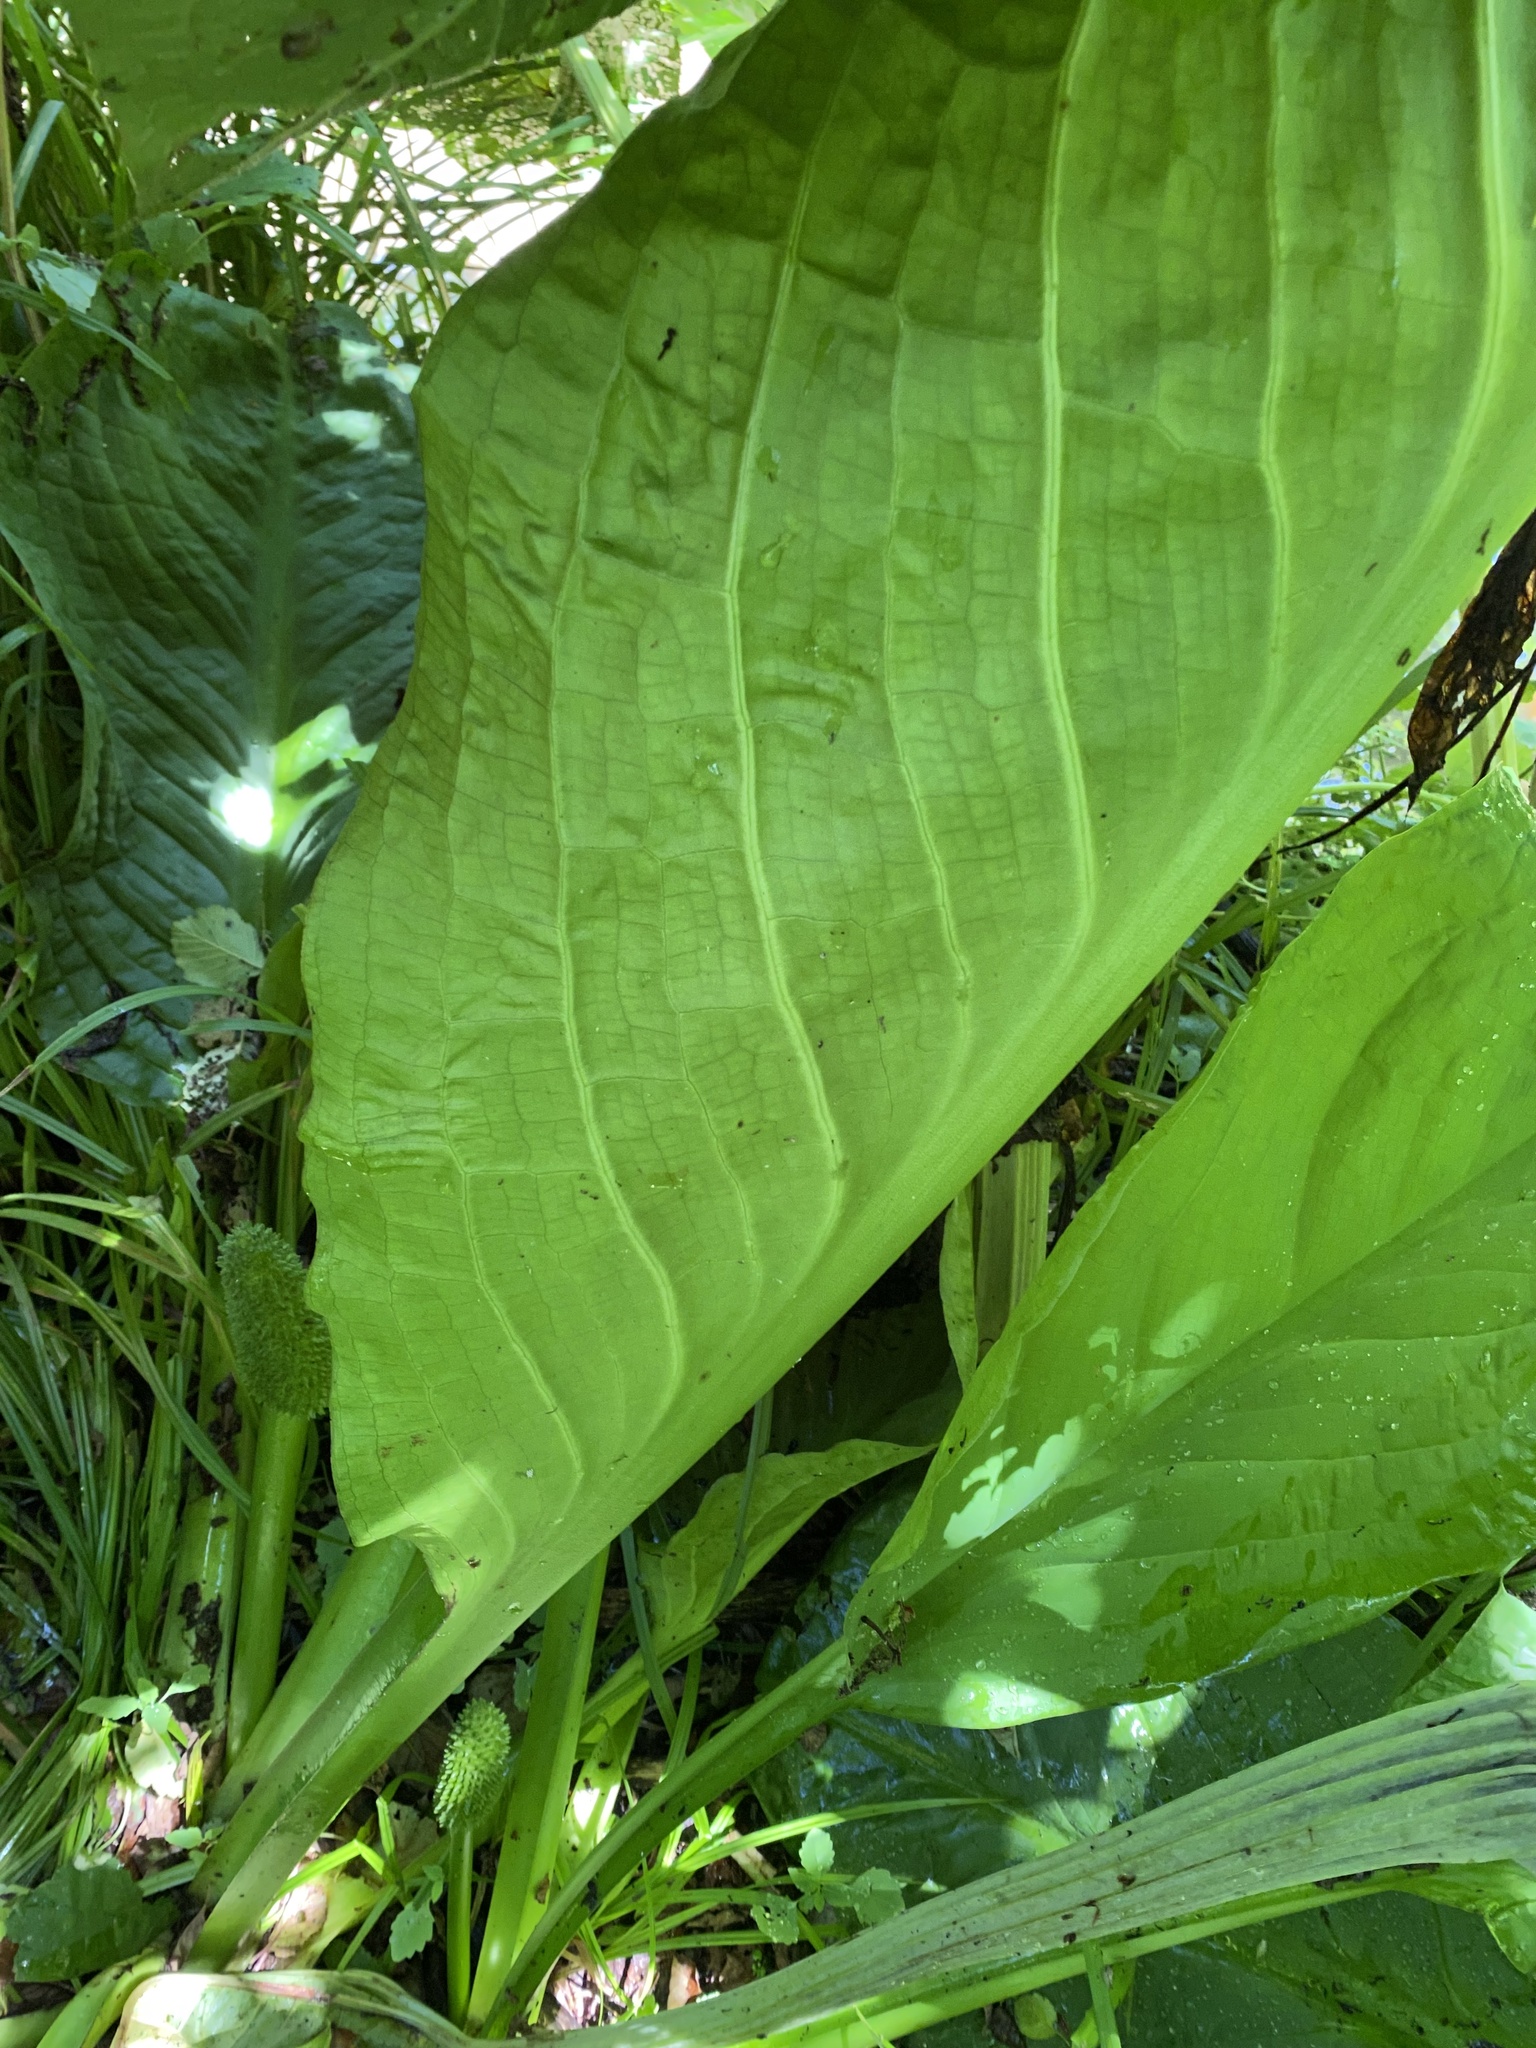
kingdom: Plantae
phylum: Tracheophyta
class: Liliopsida
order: Alismatales
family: Araceae
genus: Lysichiton
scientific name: Lysichiton camtschatcensis
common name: Asian skunk-cabbage
